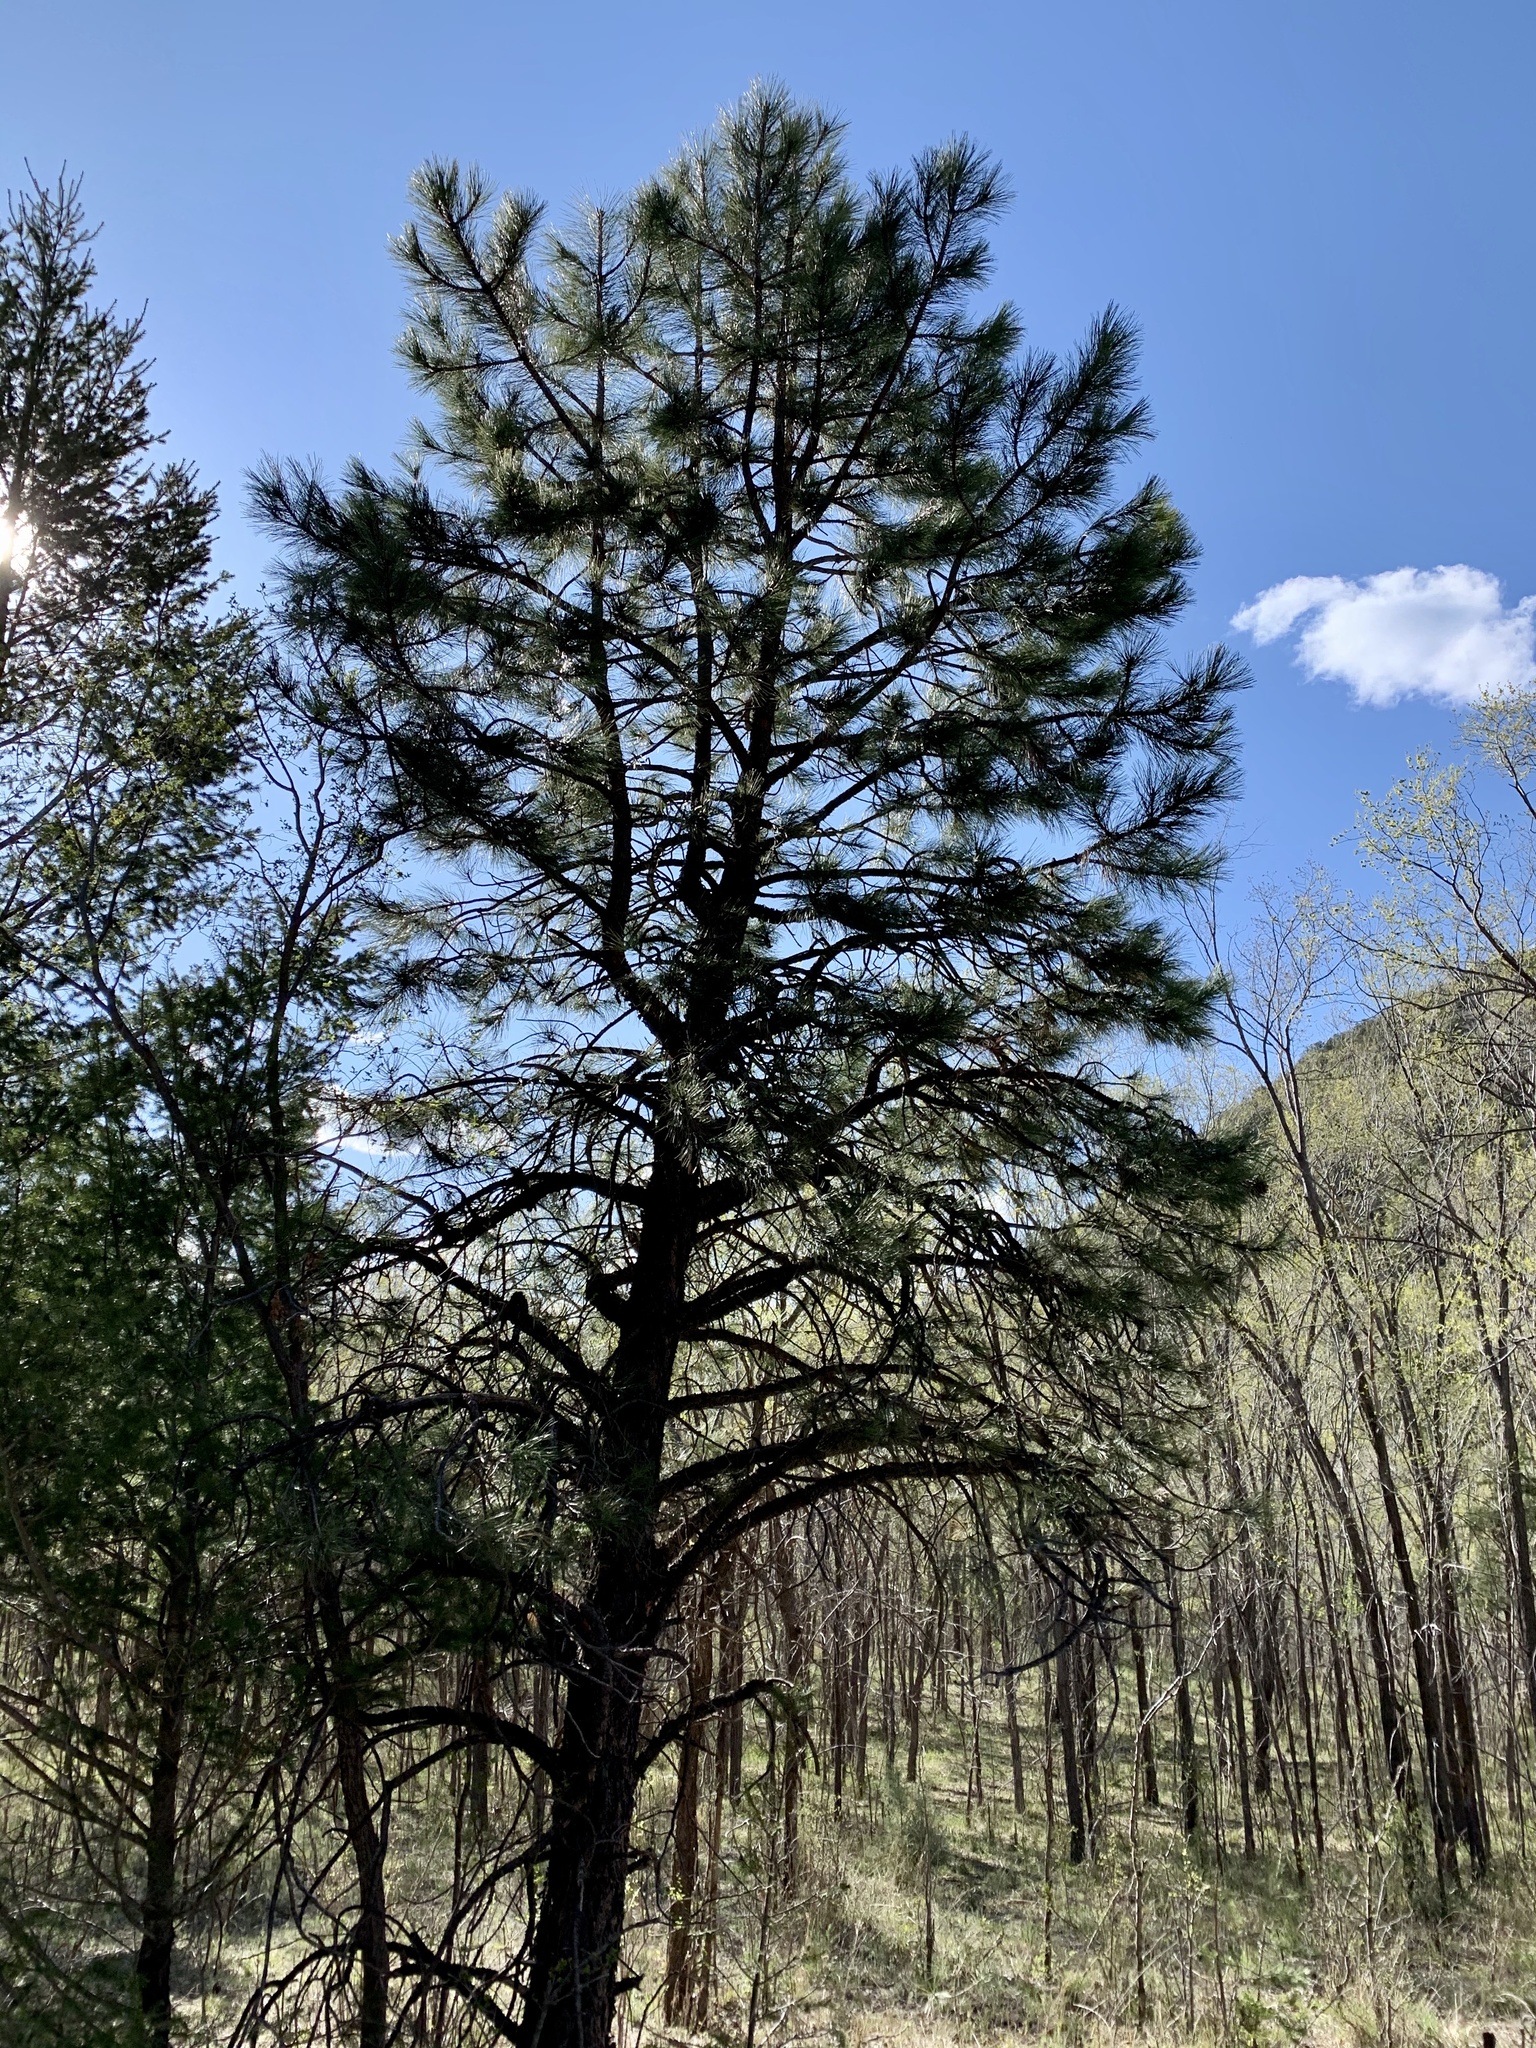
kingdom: Plantae
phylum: Tracheophyta
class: Pinopsida
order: Pinales
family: Pinaceae
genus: Pinus
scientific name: Pinus ponderosa
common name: Western yellow-pine
